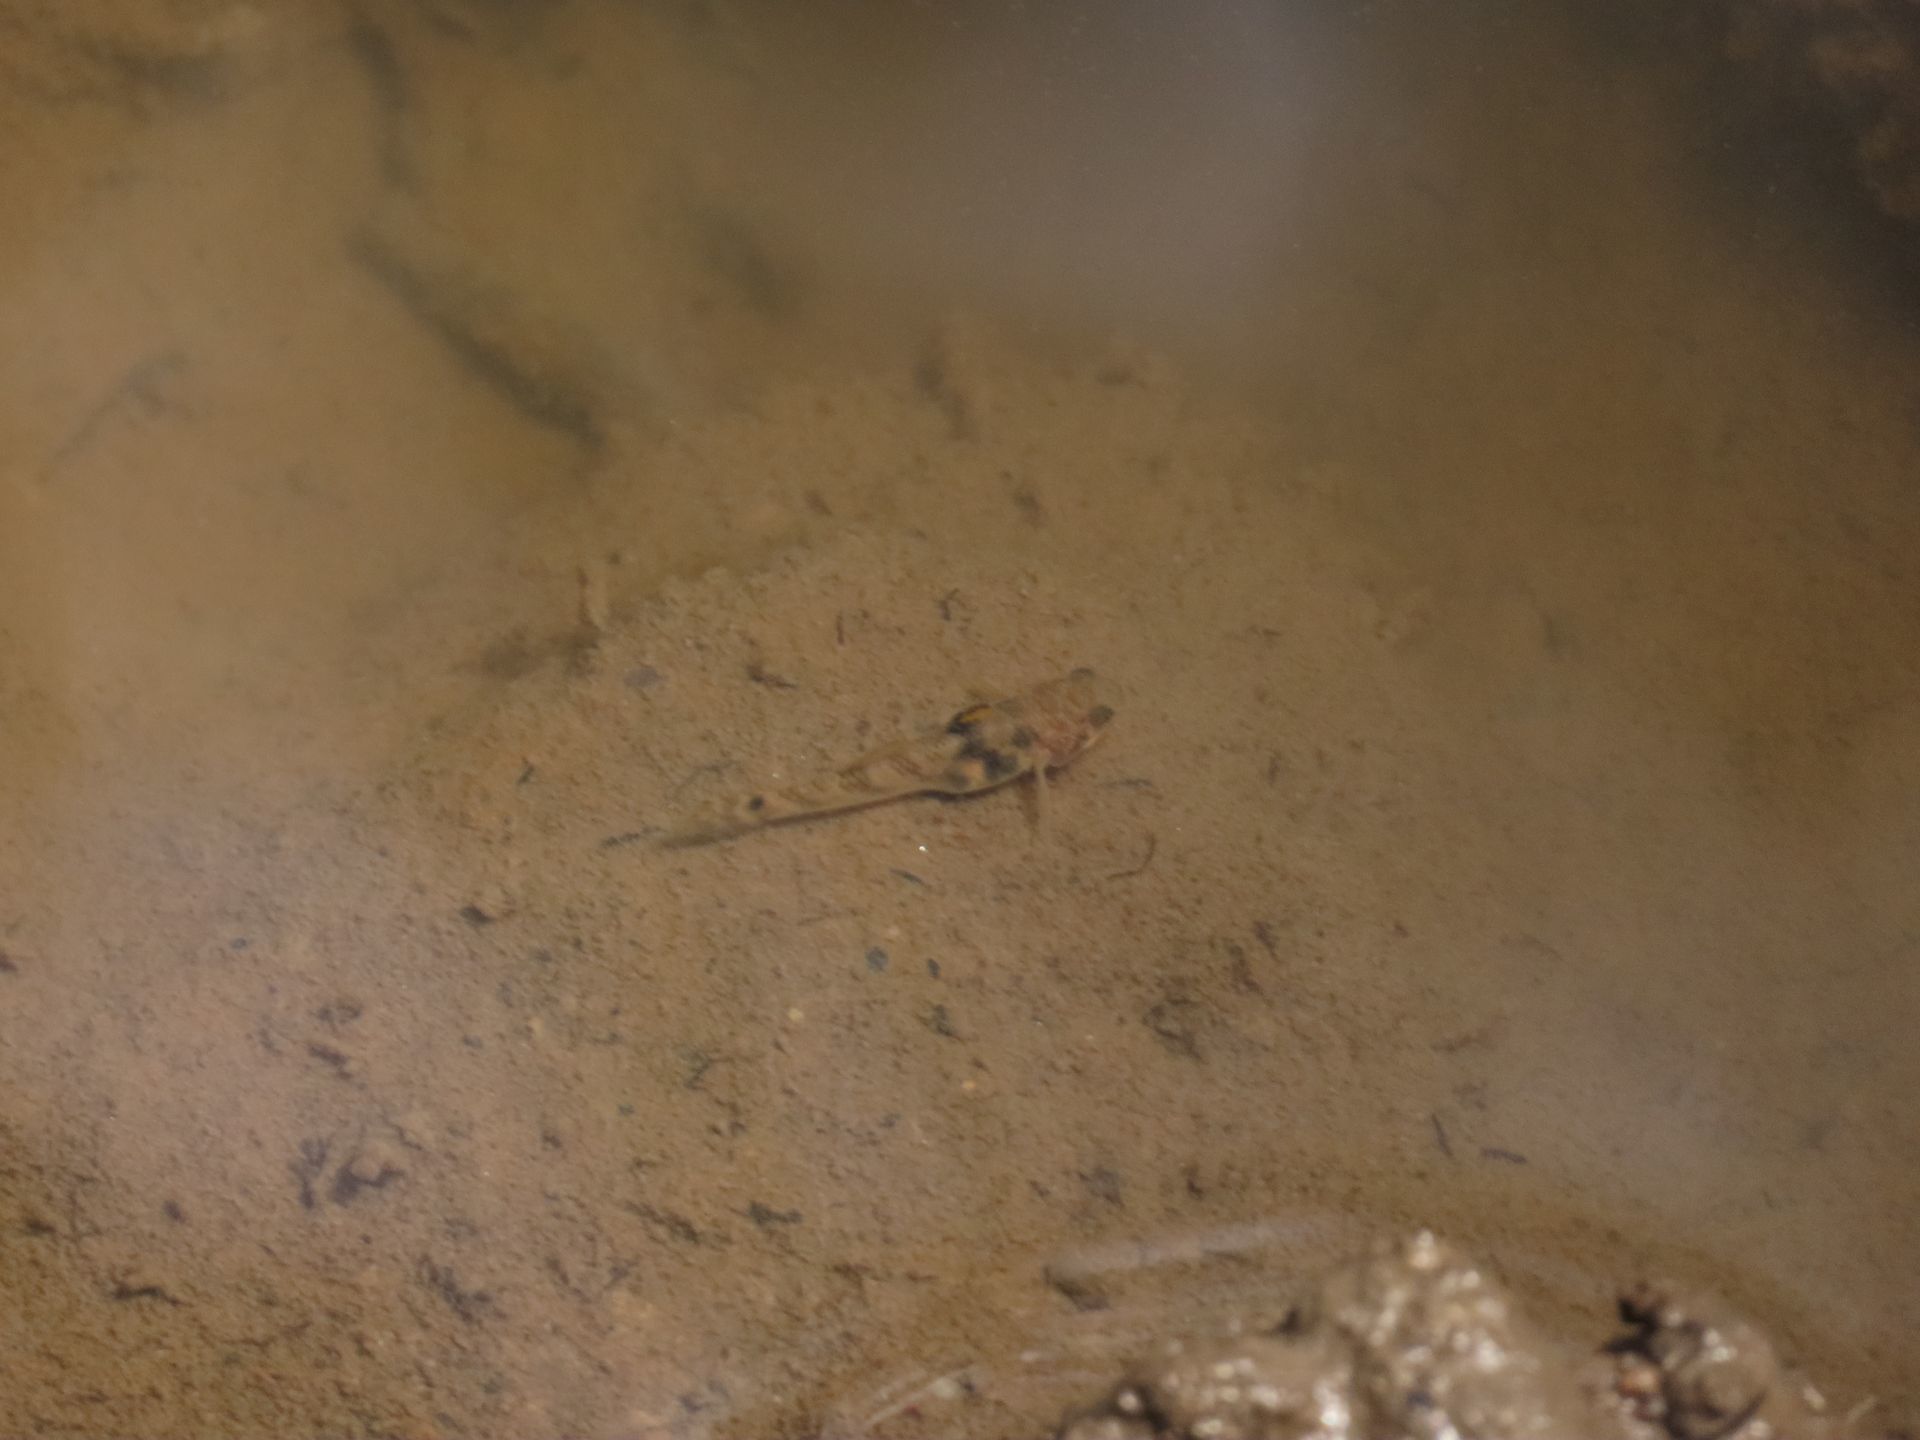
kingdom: Animalia
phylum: Chordata
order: Perciformes
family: Gobiidae
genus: Hemigobius
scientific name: Hemigobius hoevenii
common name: Banded mullet-goby
